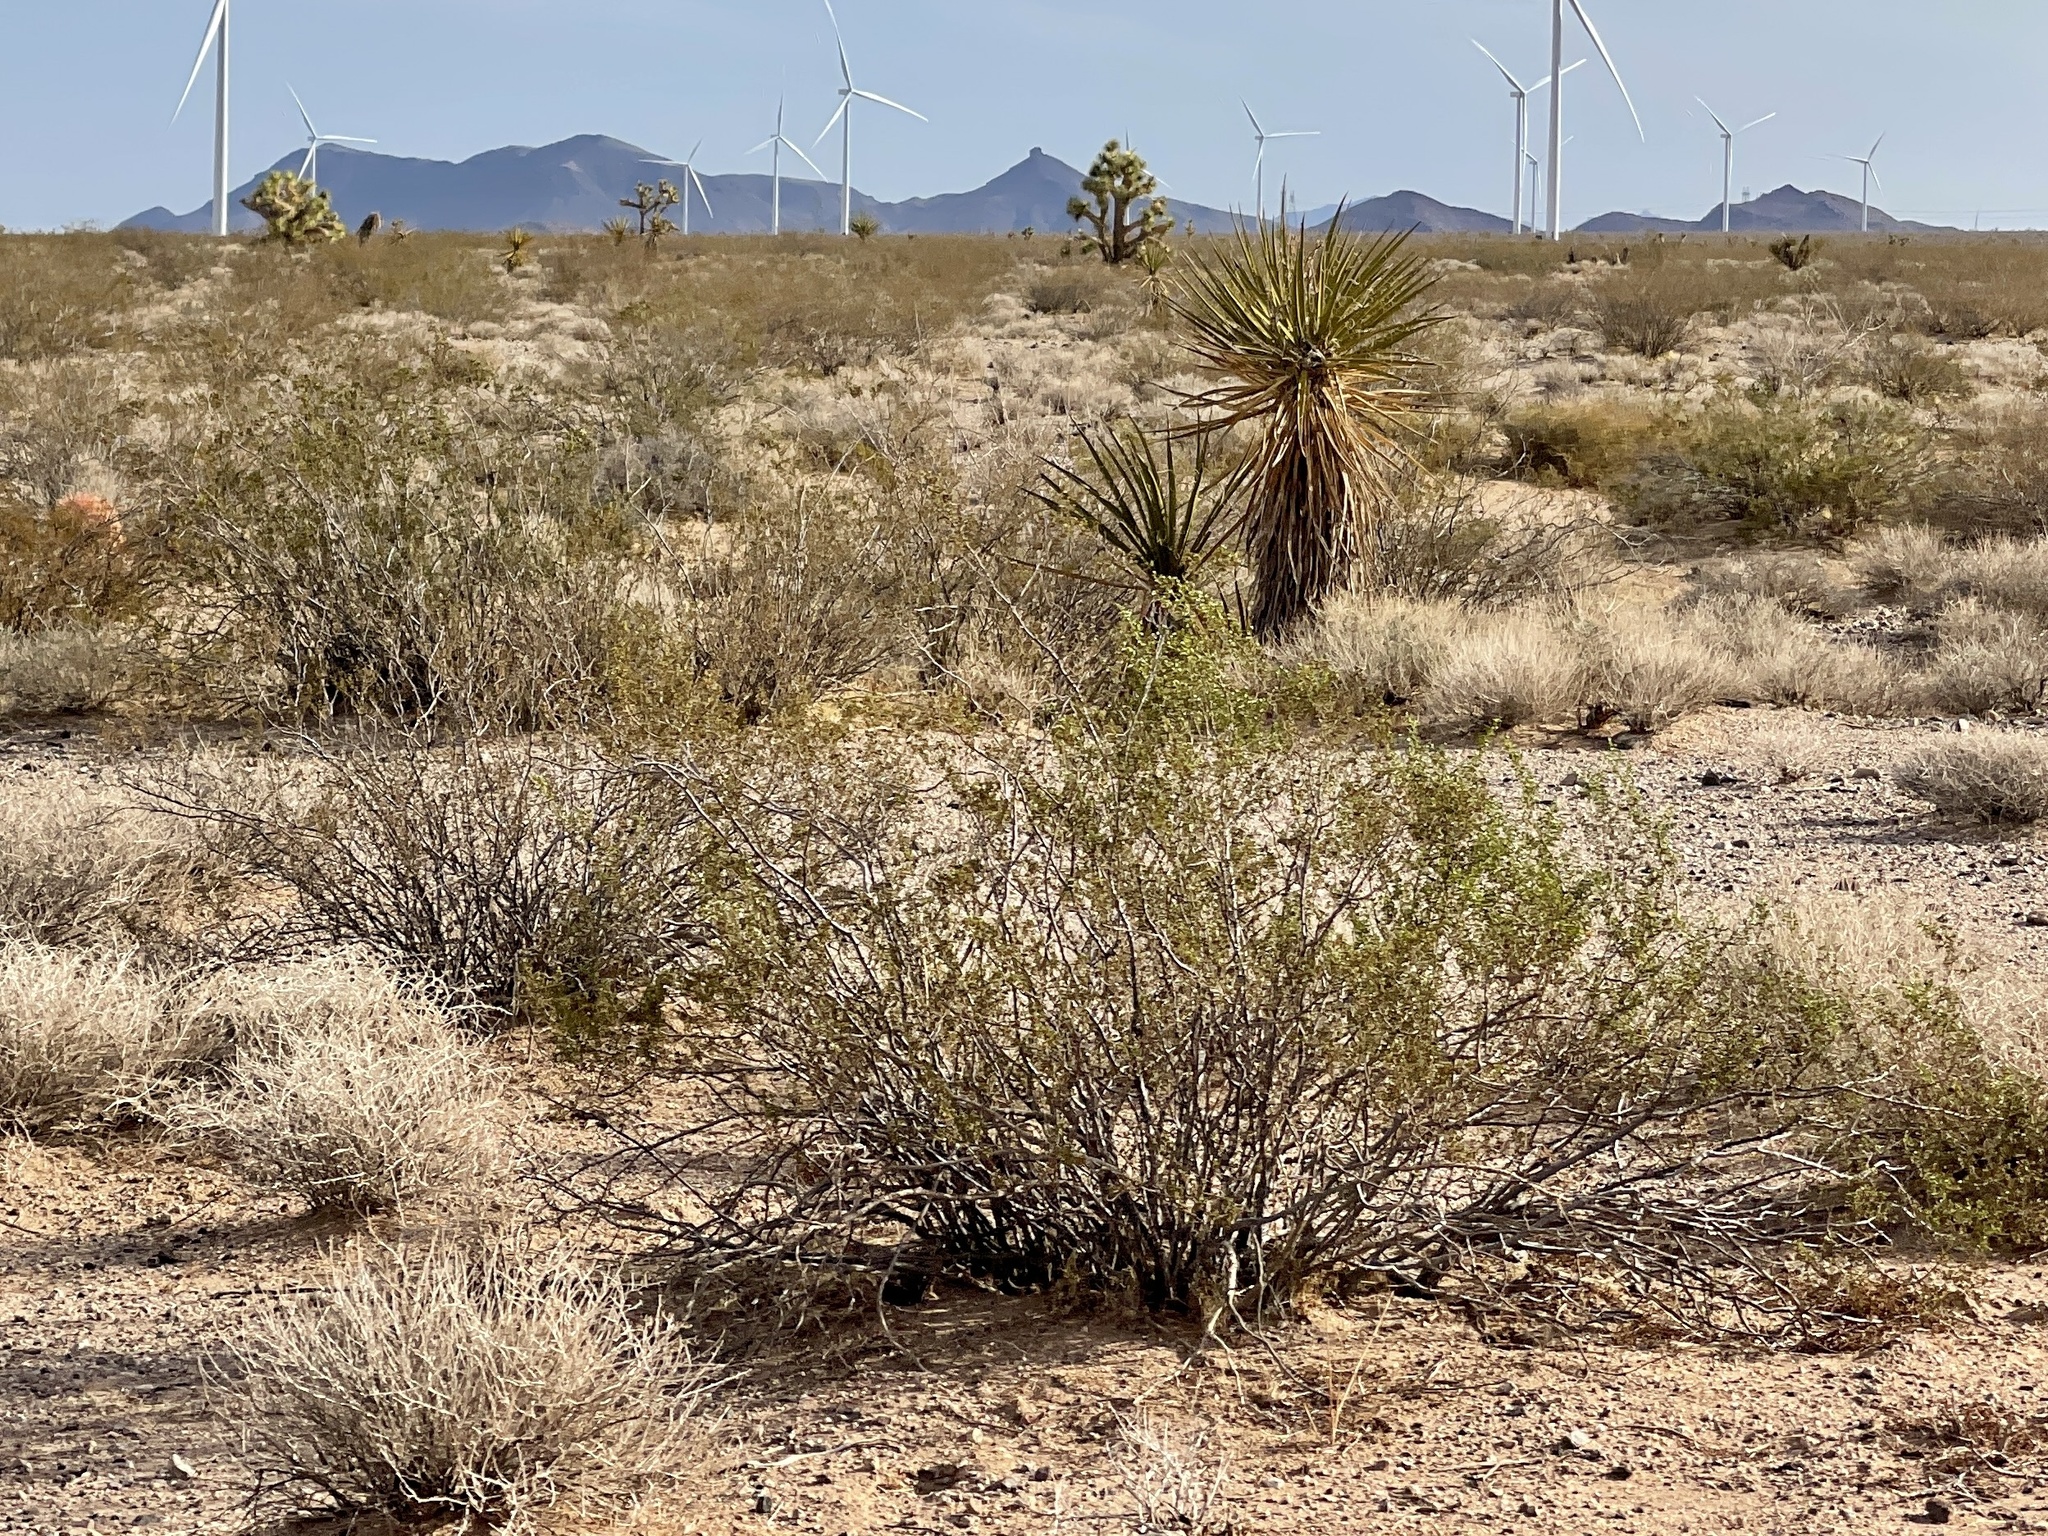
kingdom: Plantae
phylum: Tracheophyta
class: Magnoliopsida
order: Zygophyllales
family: Zygophyllaceae
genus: Larrea
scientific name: Larrea tridentata
